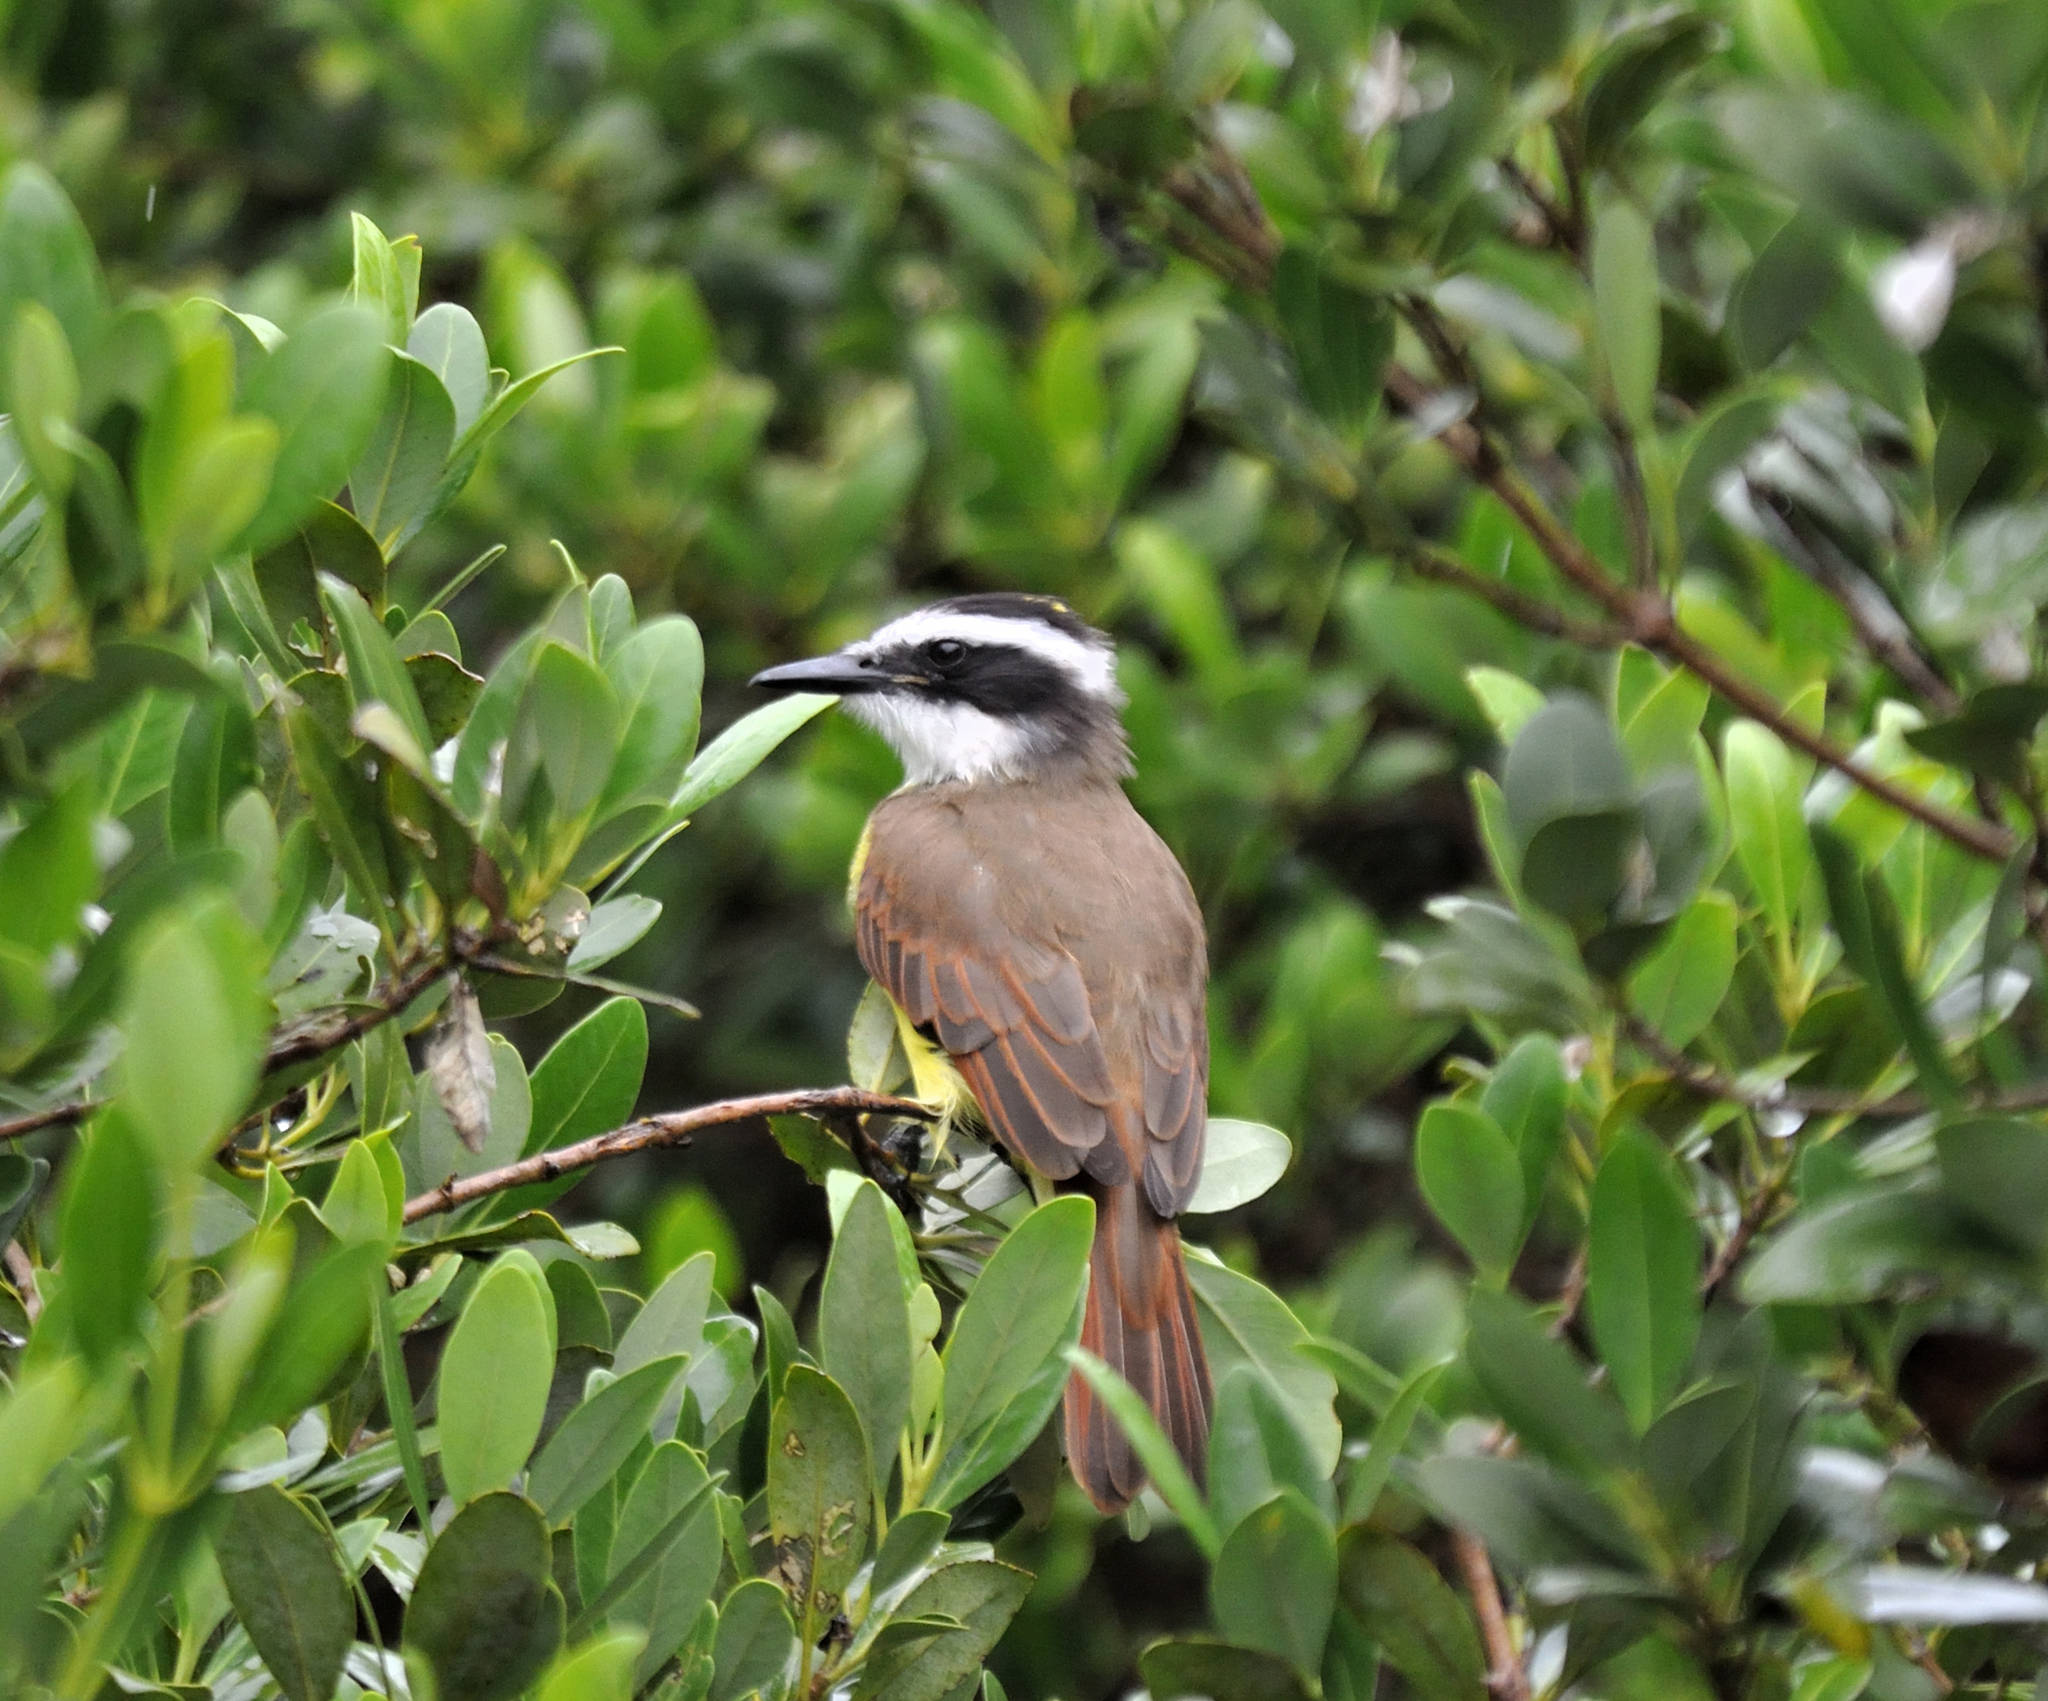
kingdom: Animalia
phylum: Chordata
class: Aves
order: Passeriformes
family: Tyrannidae
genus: Pitangus
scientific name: Pitangus sulphuratus
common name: Great kiskadee
